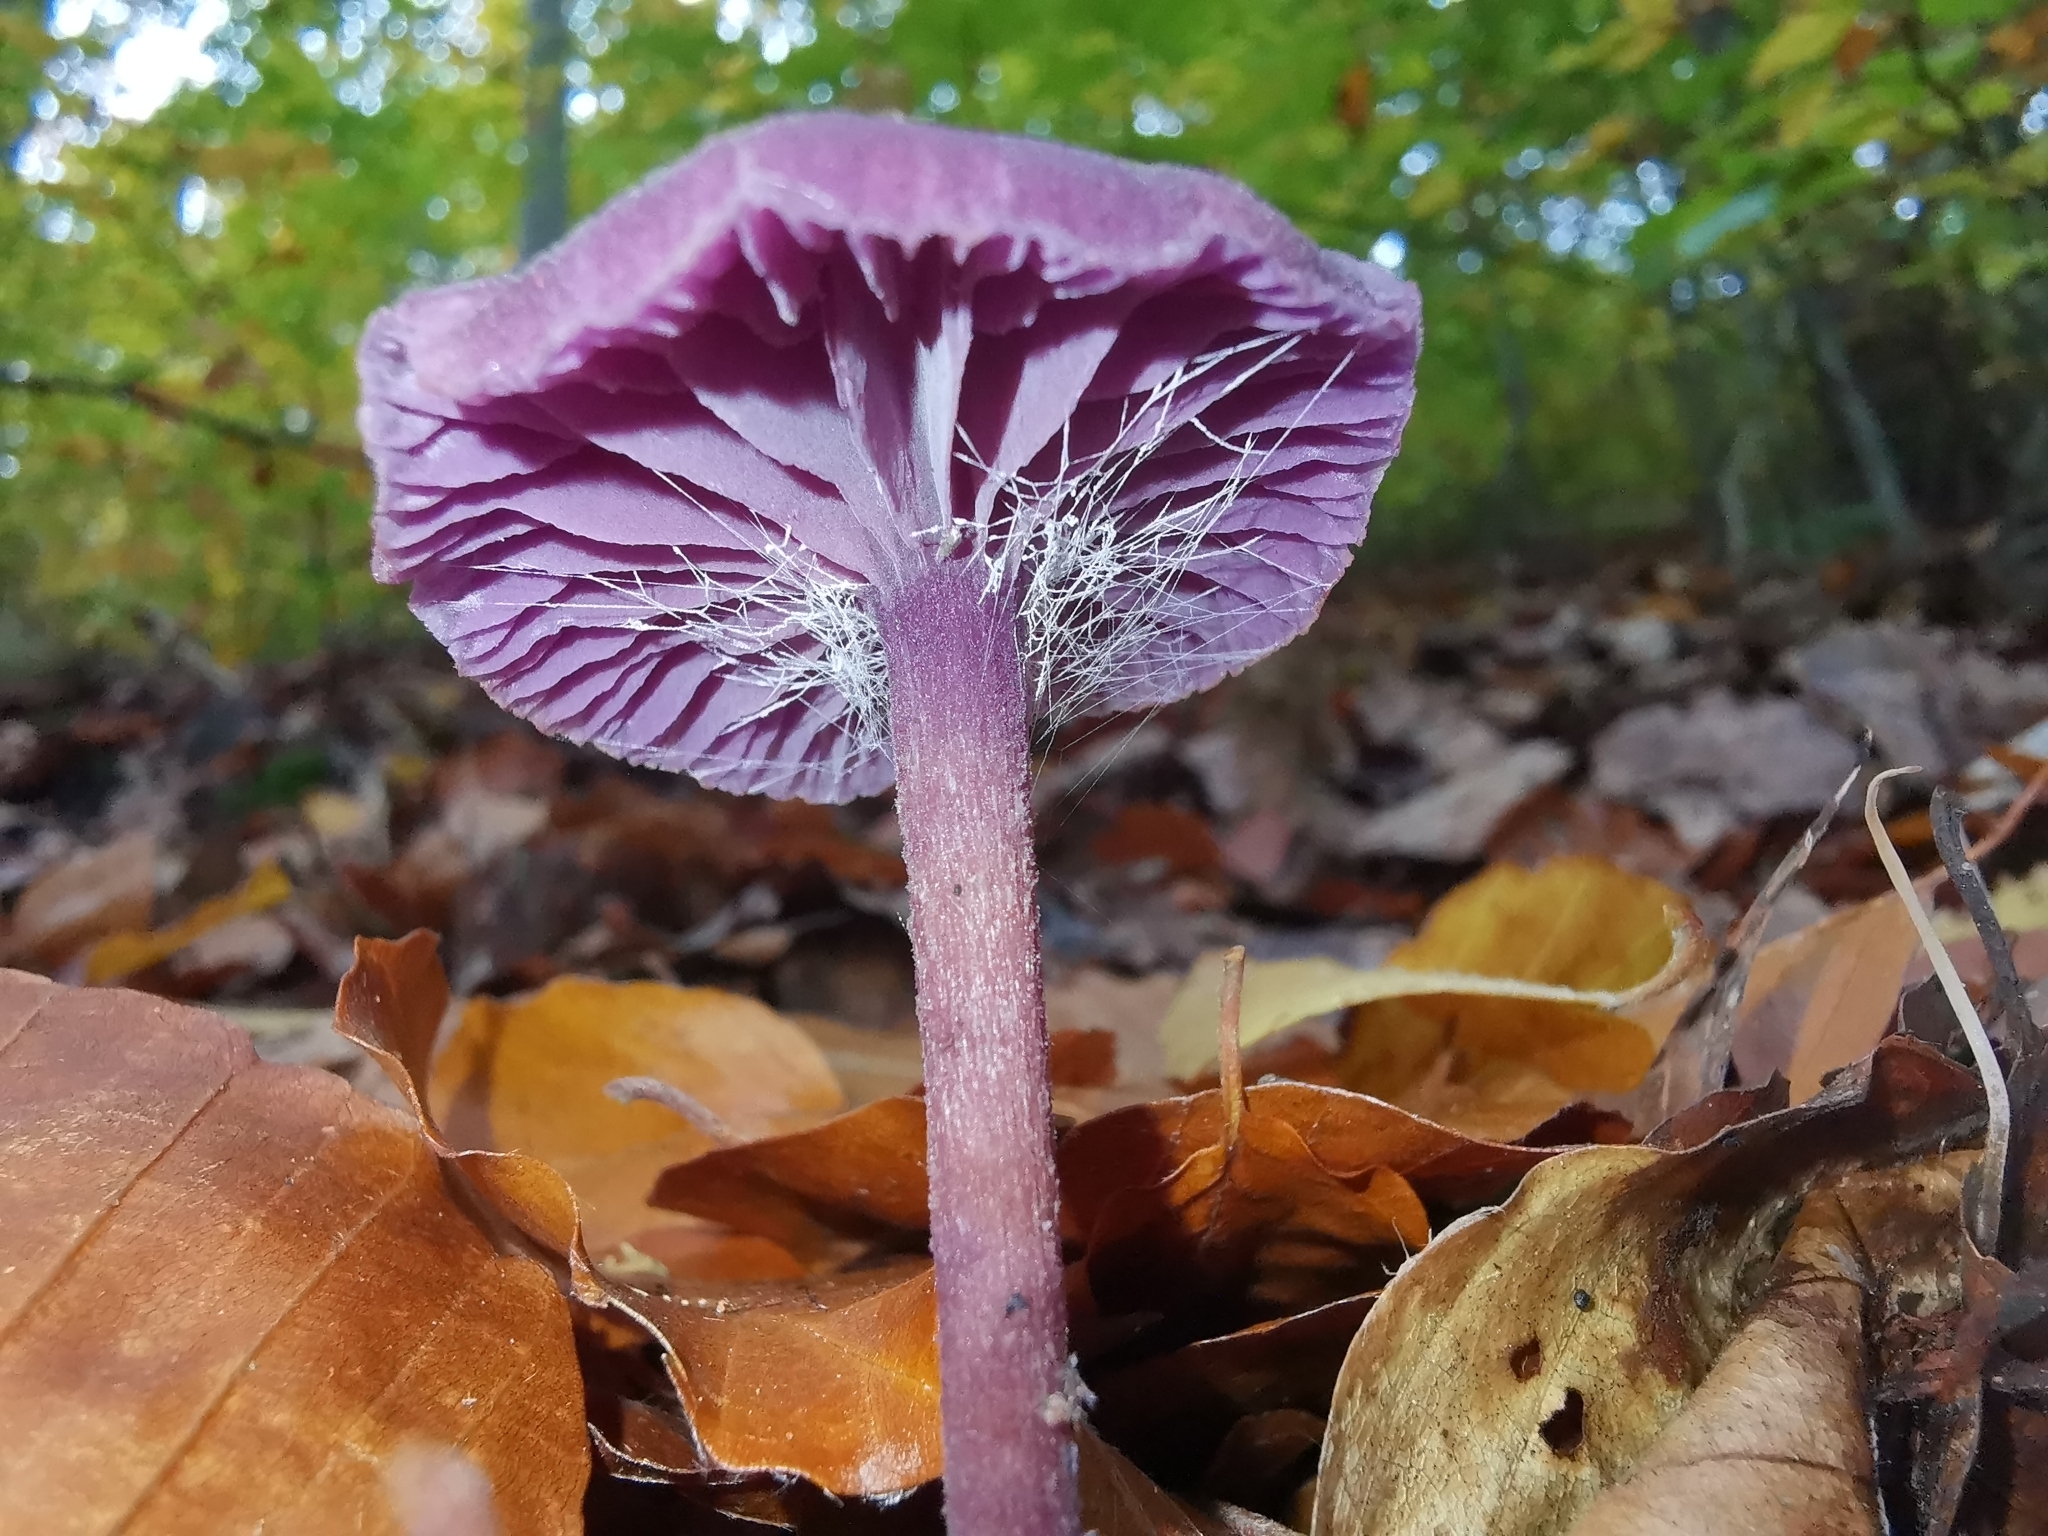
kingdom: Fungi
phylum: Basidiomycota
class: Agaricomycetes
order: Agaricales
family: Hydnangiaceae
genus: Laccaria
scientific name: Laccaria amethystina
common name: Amethyst deceiver
